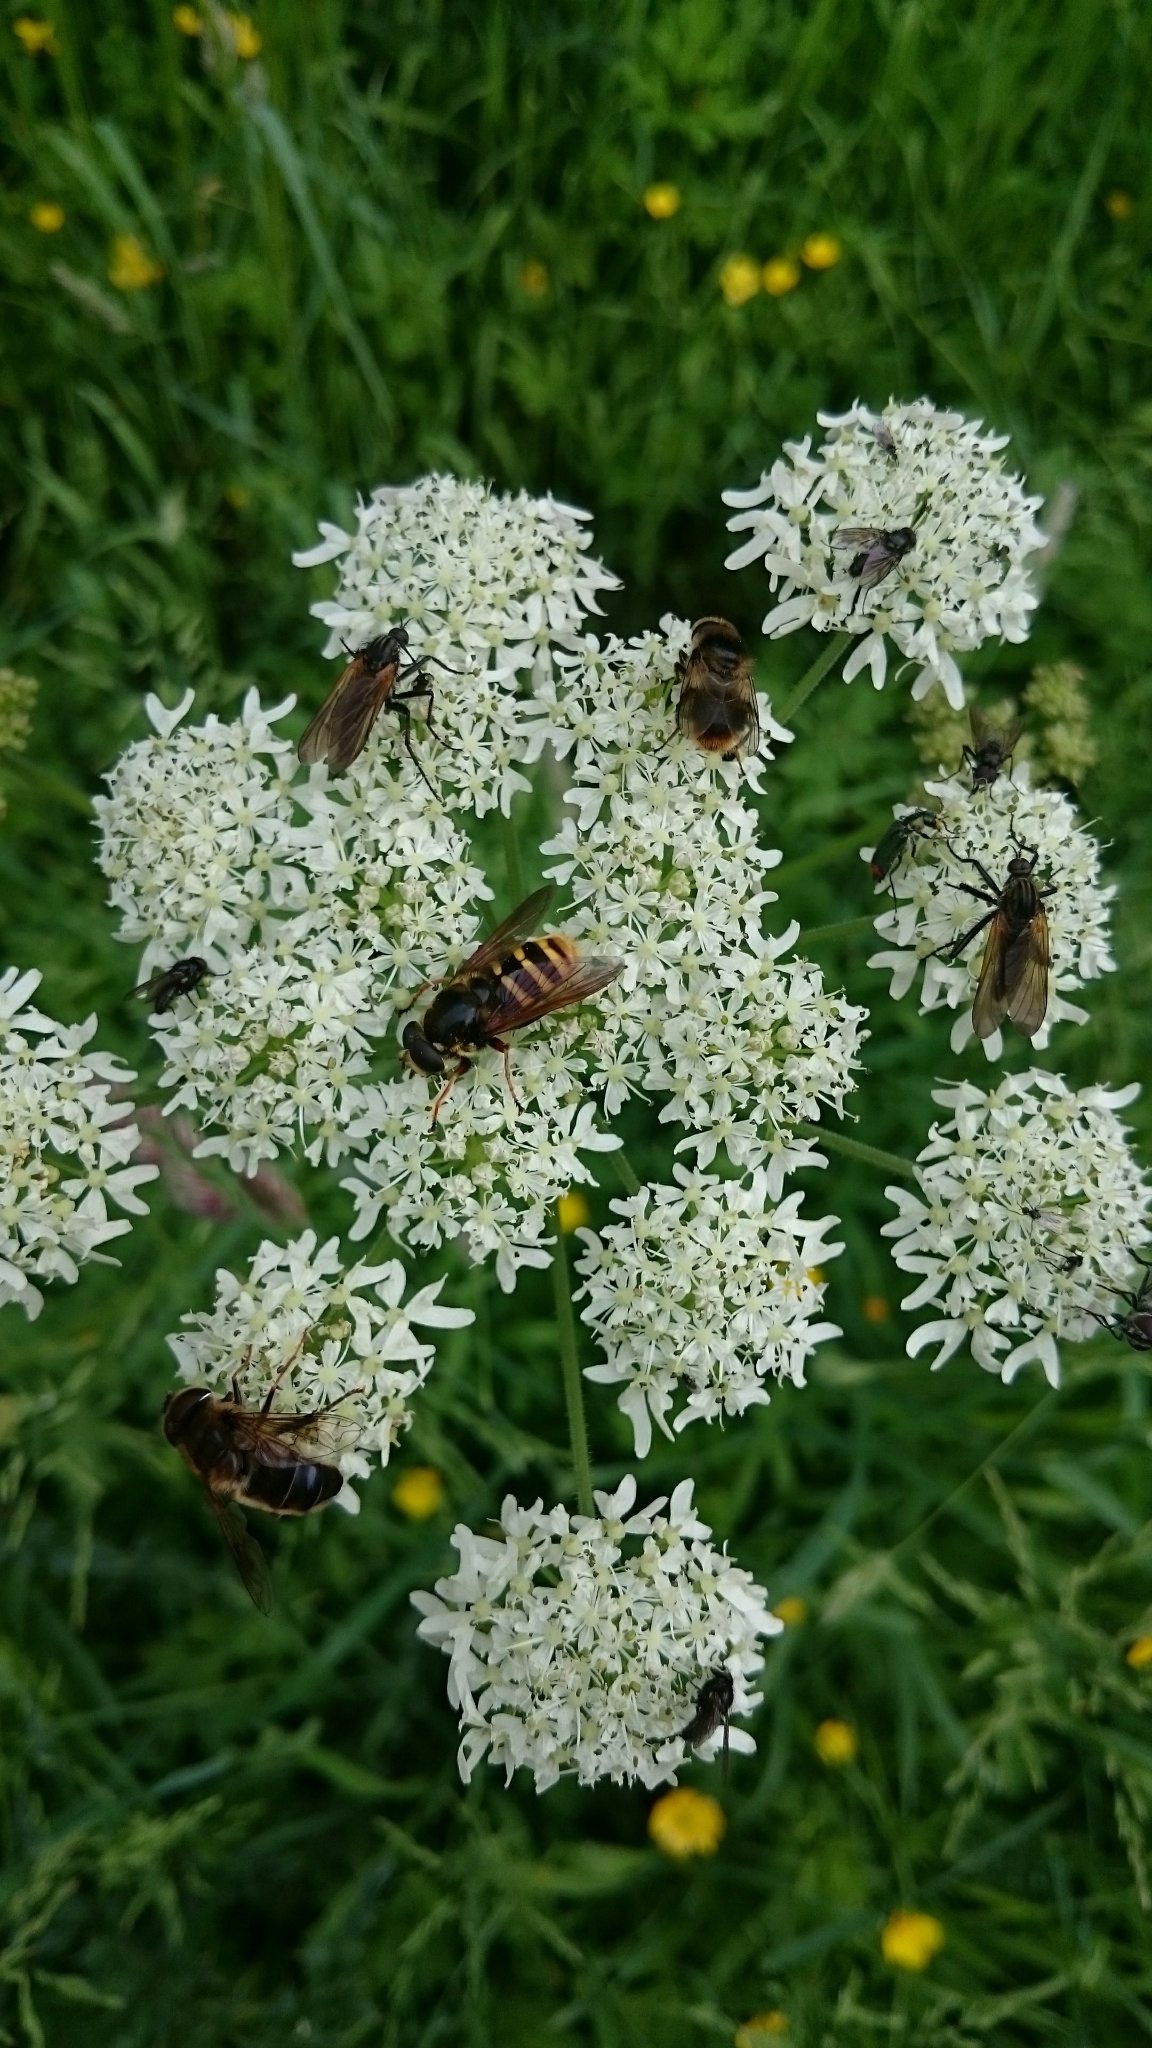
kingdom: Animalia
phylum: Arthropoda
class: Insecta
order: Diptera
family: Syrphidae
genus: Sericomyia
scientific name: Sericomyia silentis
